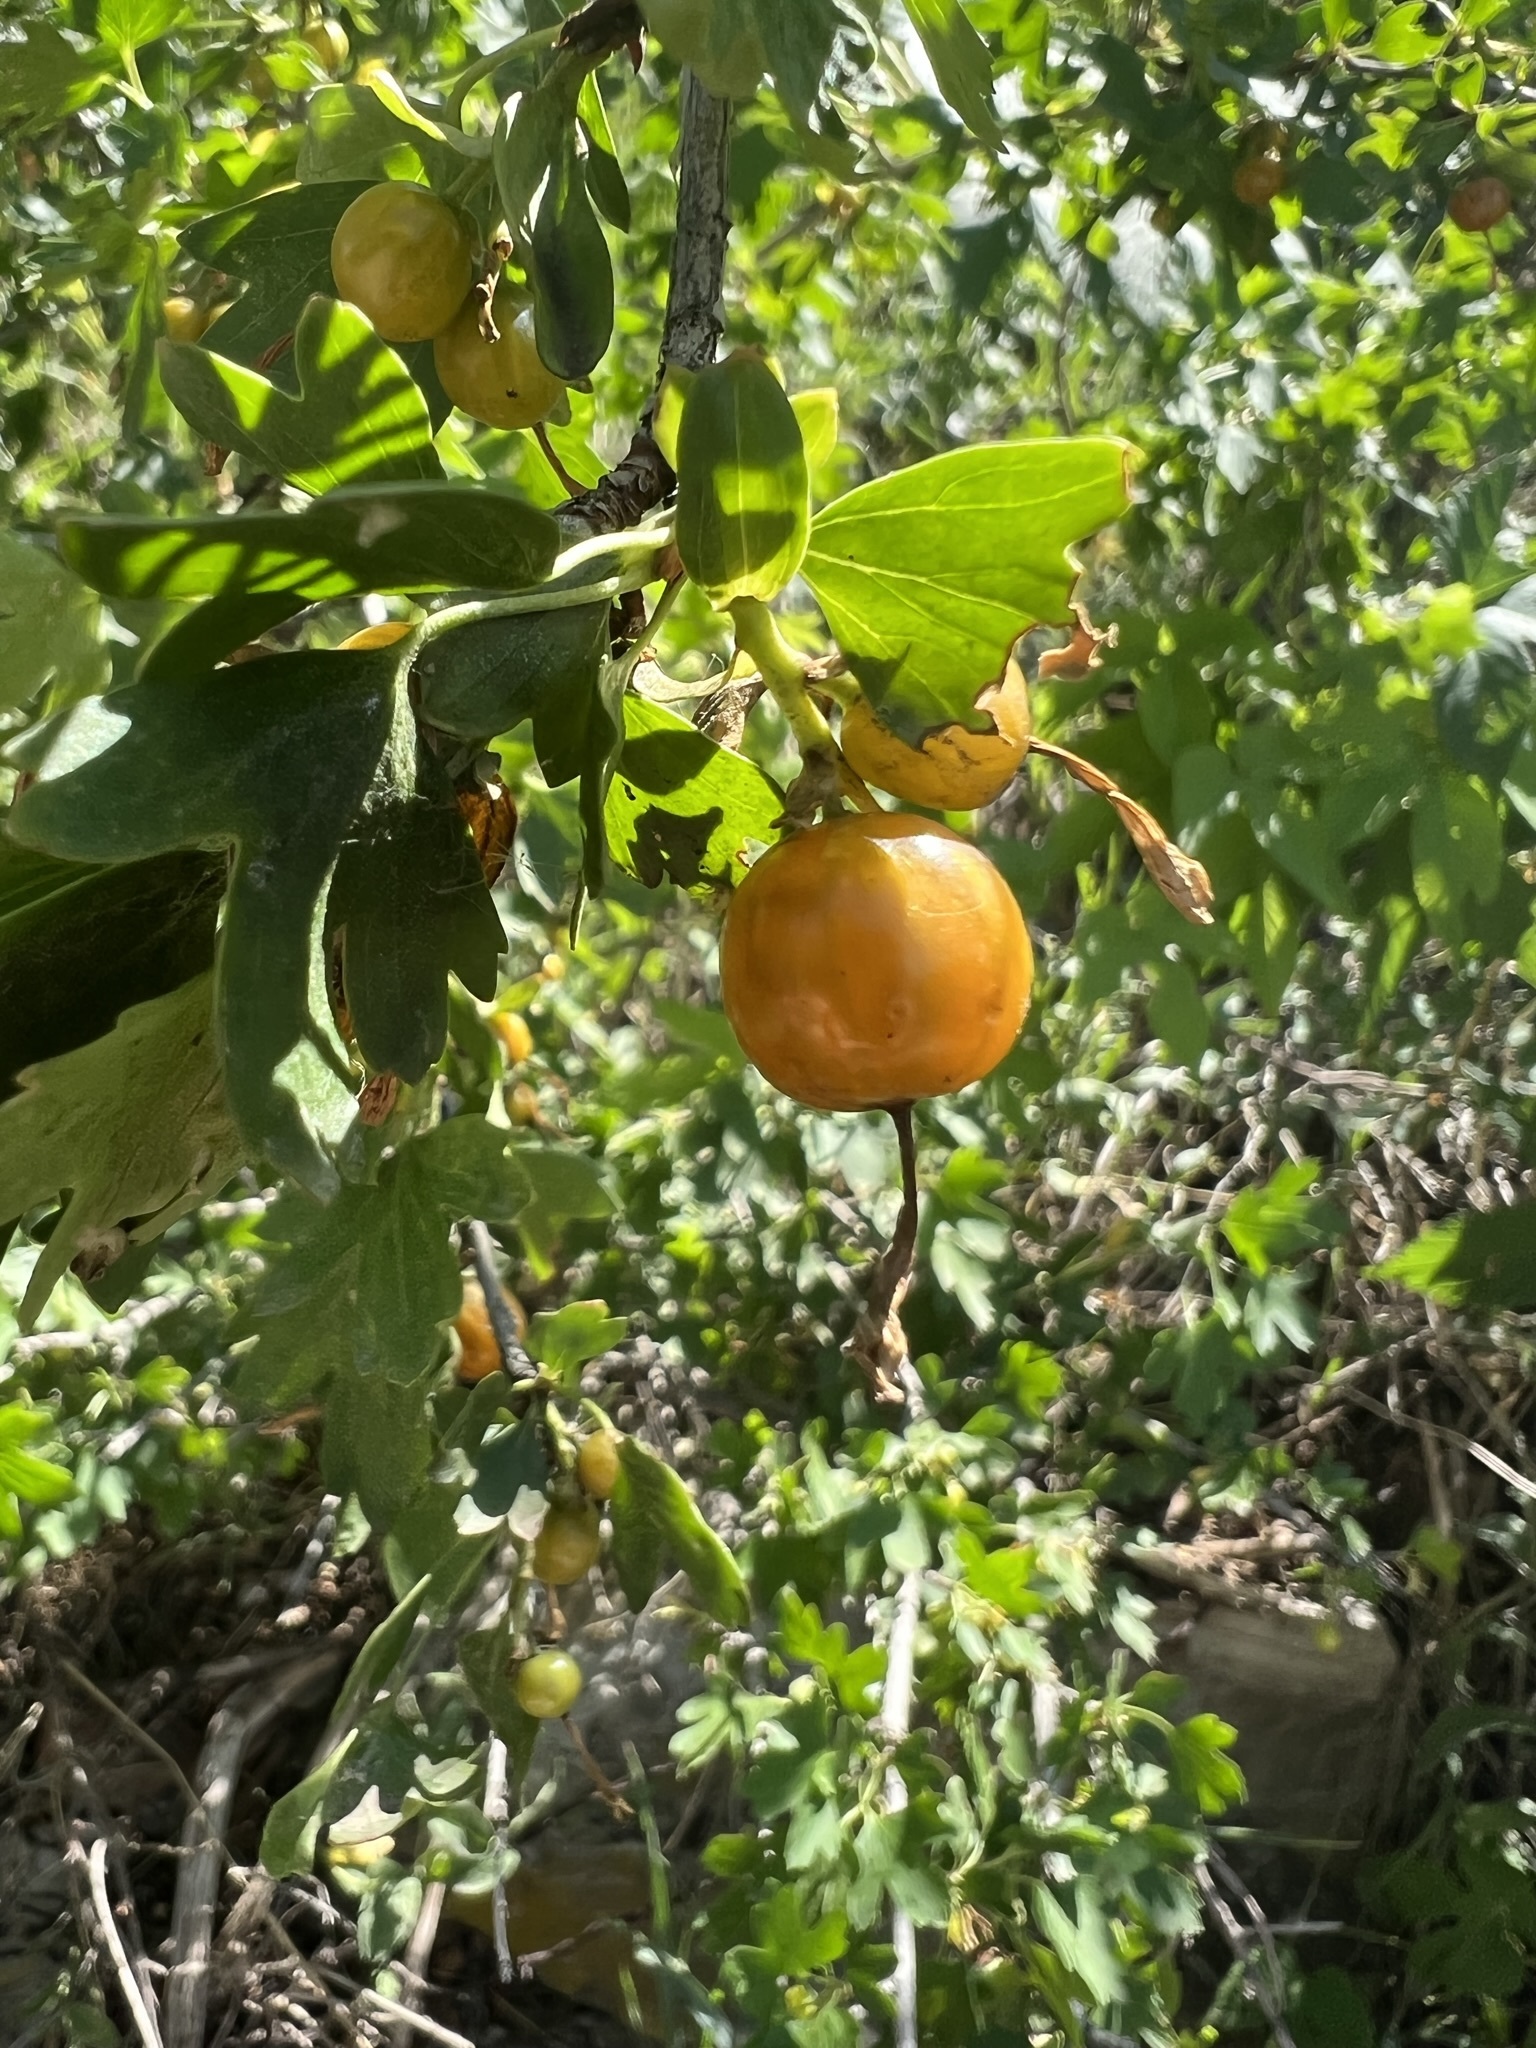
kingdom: Plantae
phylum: Tracheophyta
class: Magnoliopsida
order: Saxifragales
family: Grossulariaceae
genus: Ribes
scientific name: Ribes aureum
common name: Golden currant
